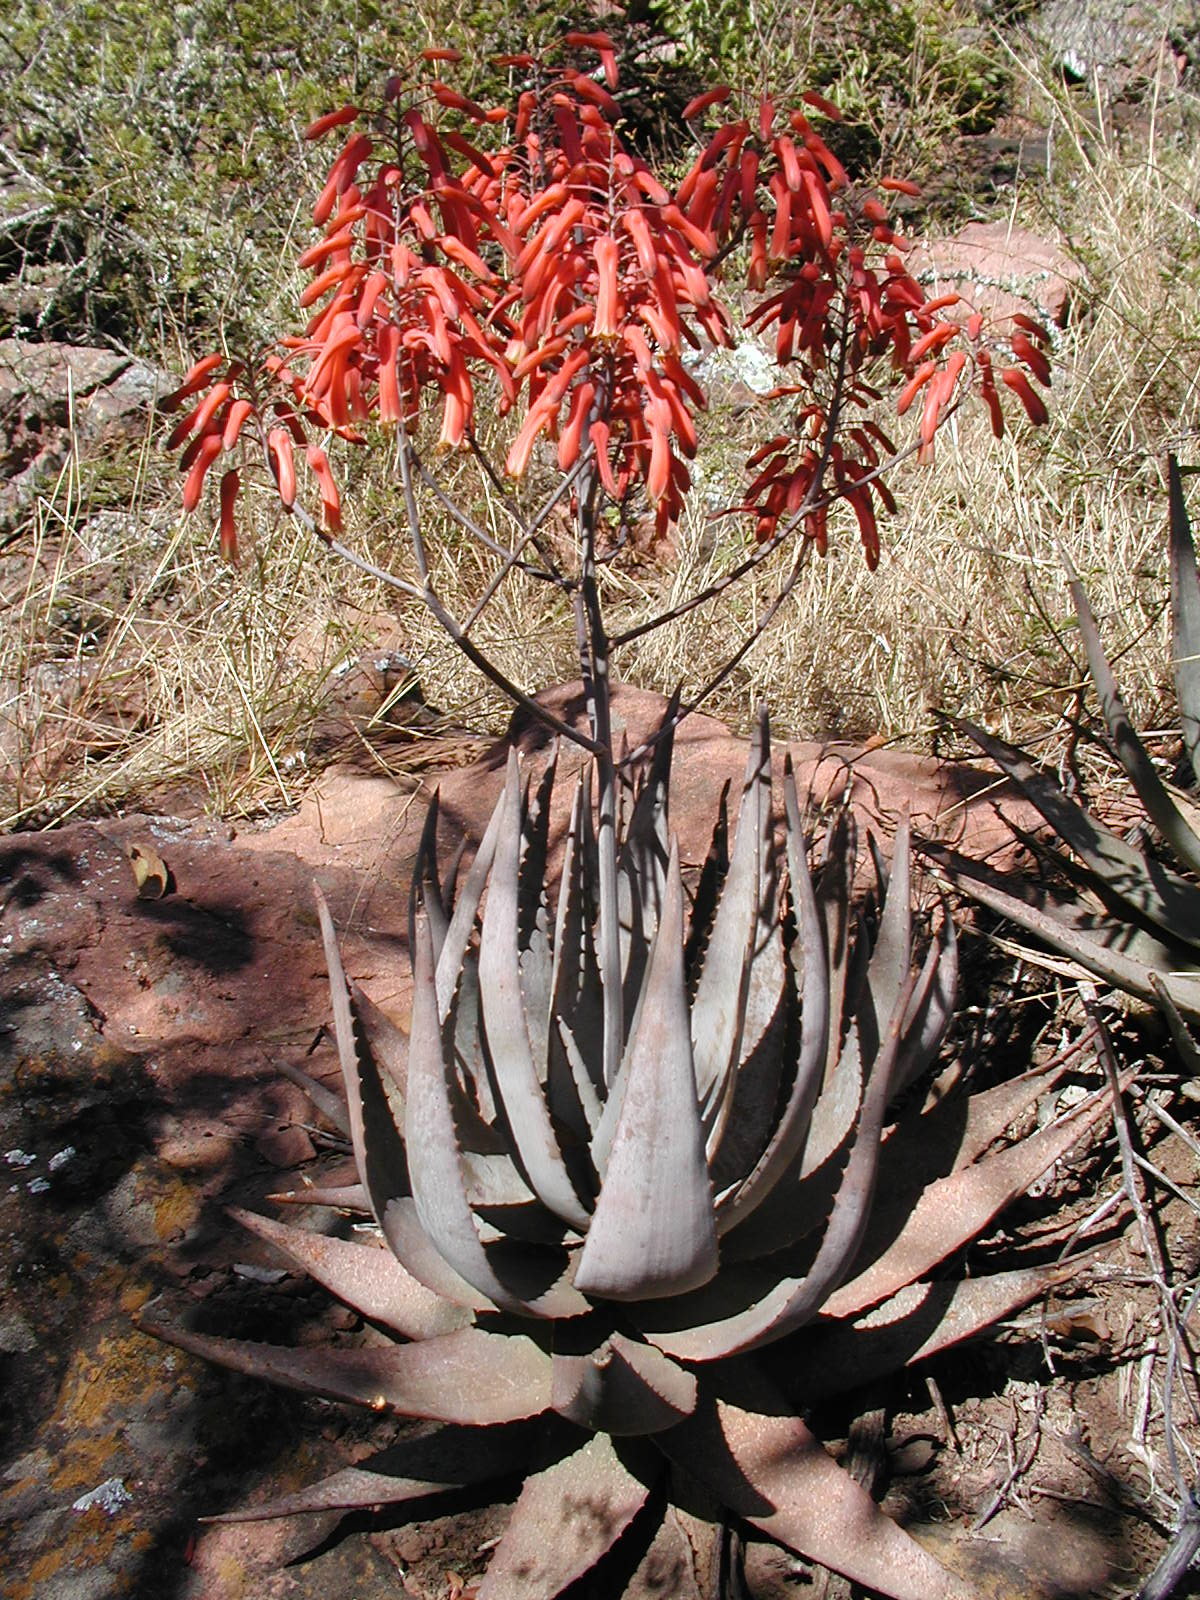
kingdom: Plantae
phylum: Tracheophyta
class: Liliopsida
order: Asparagales
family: Asphodelaceae
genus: Aloe
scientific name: Aloe chabaudii
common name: Chabaud's aloe
